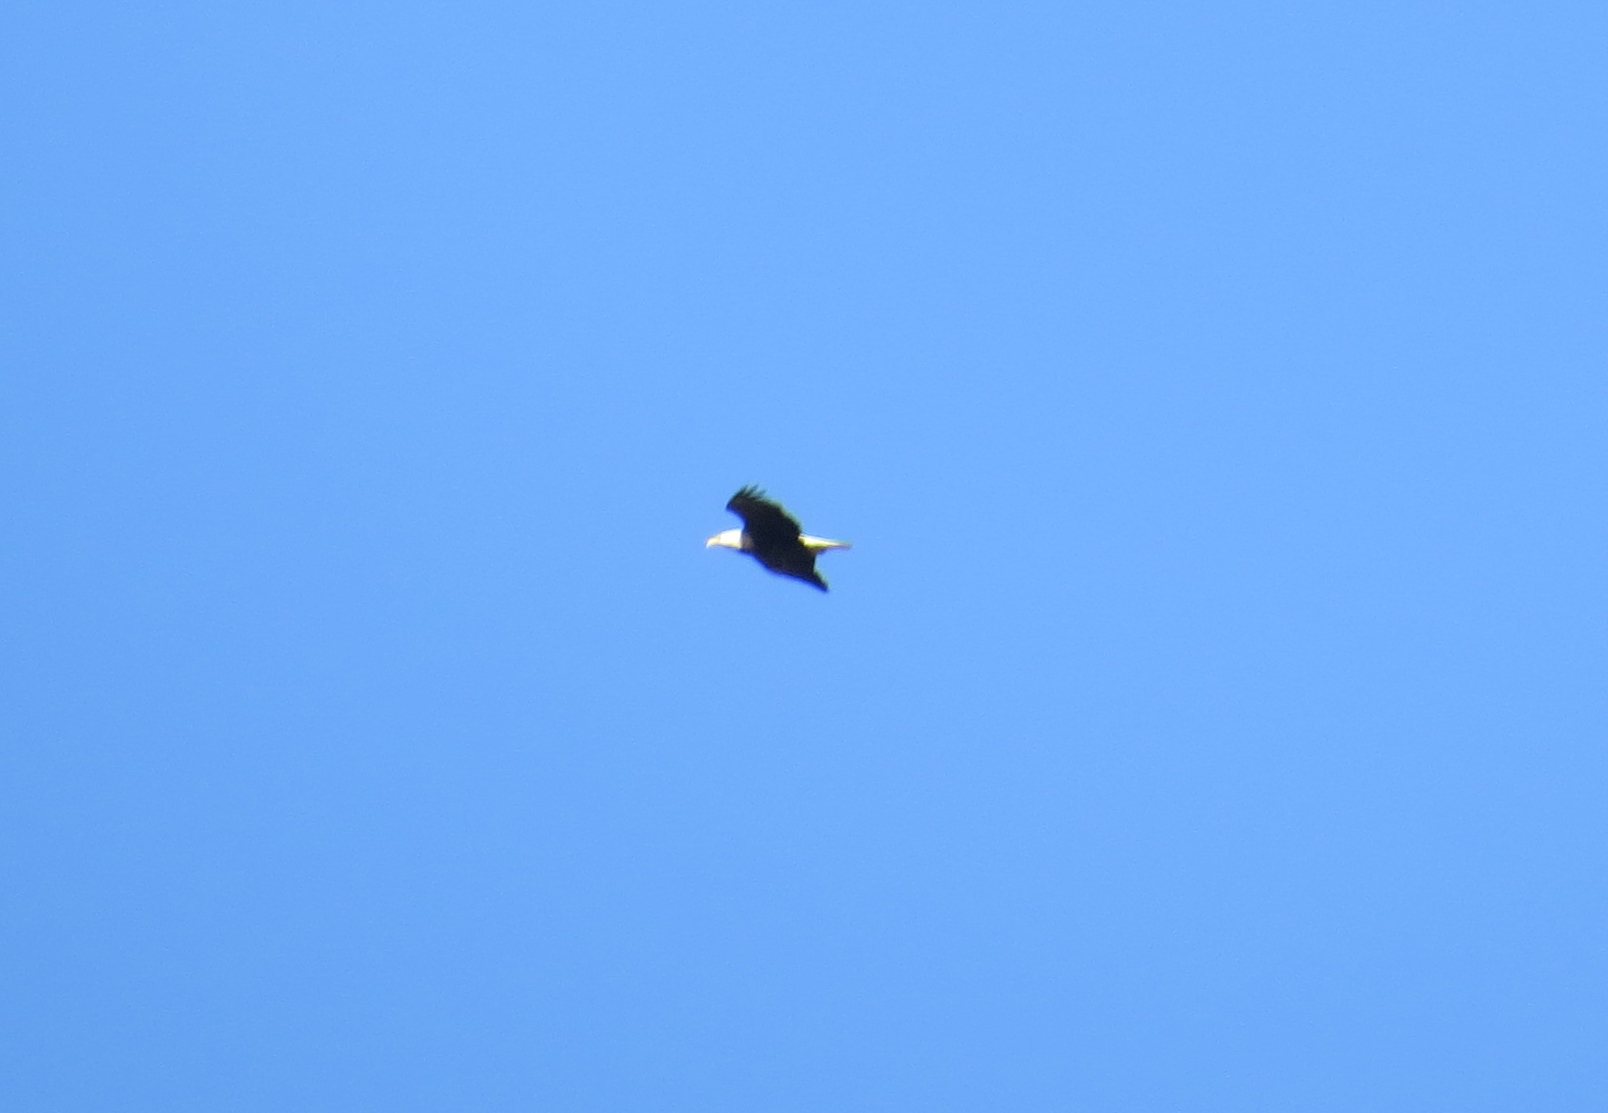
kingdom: Animalia
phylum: Chordata
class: Aves
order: Accipitriformes
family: Accipitridae
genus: Haliaeetus
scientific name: Haliaeetus leucocephalus
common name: Bald eagle
